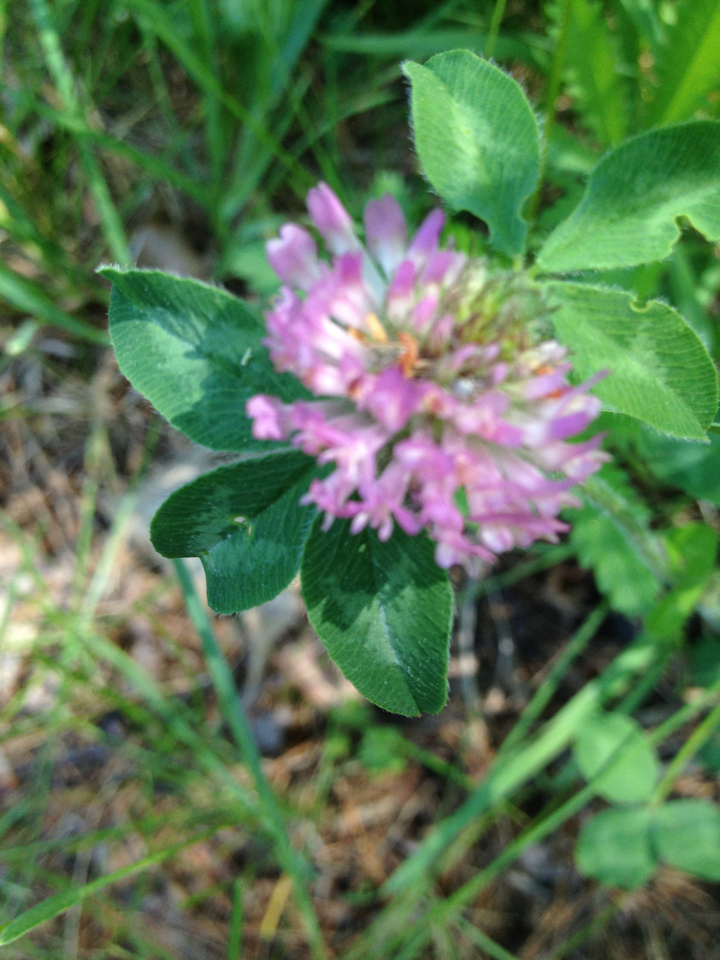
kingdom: Plantae
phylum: Tracheophyta
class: Magnoliopsida
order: Fabales
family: Fabaceae
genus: Trifolium
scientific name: Trifolium pratense
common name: Red clover
